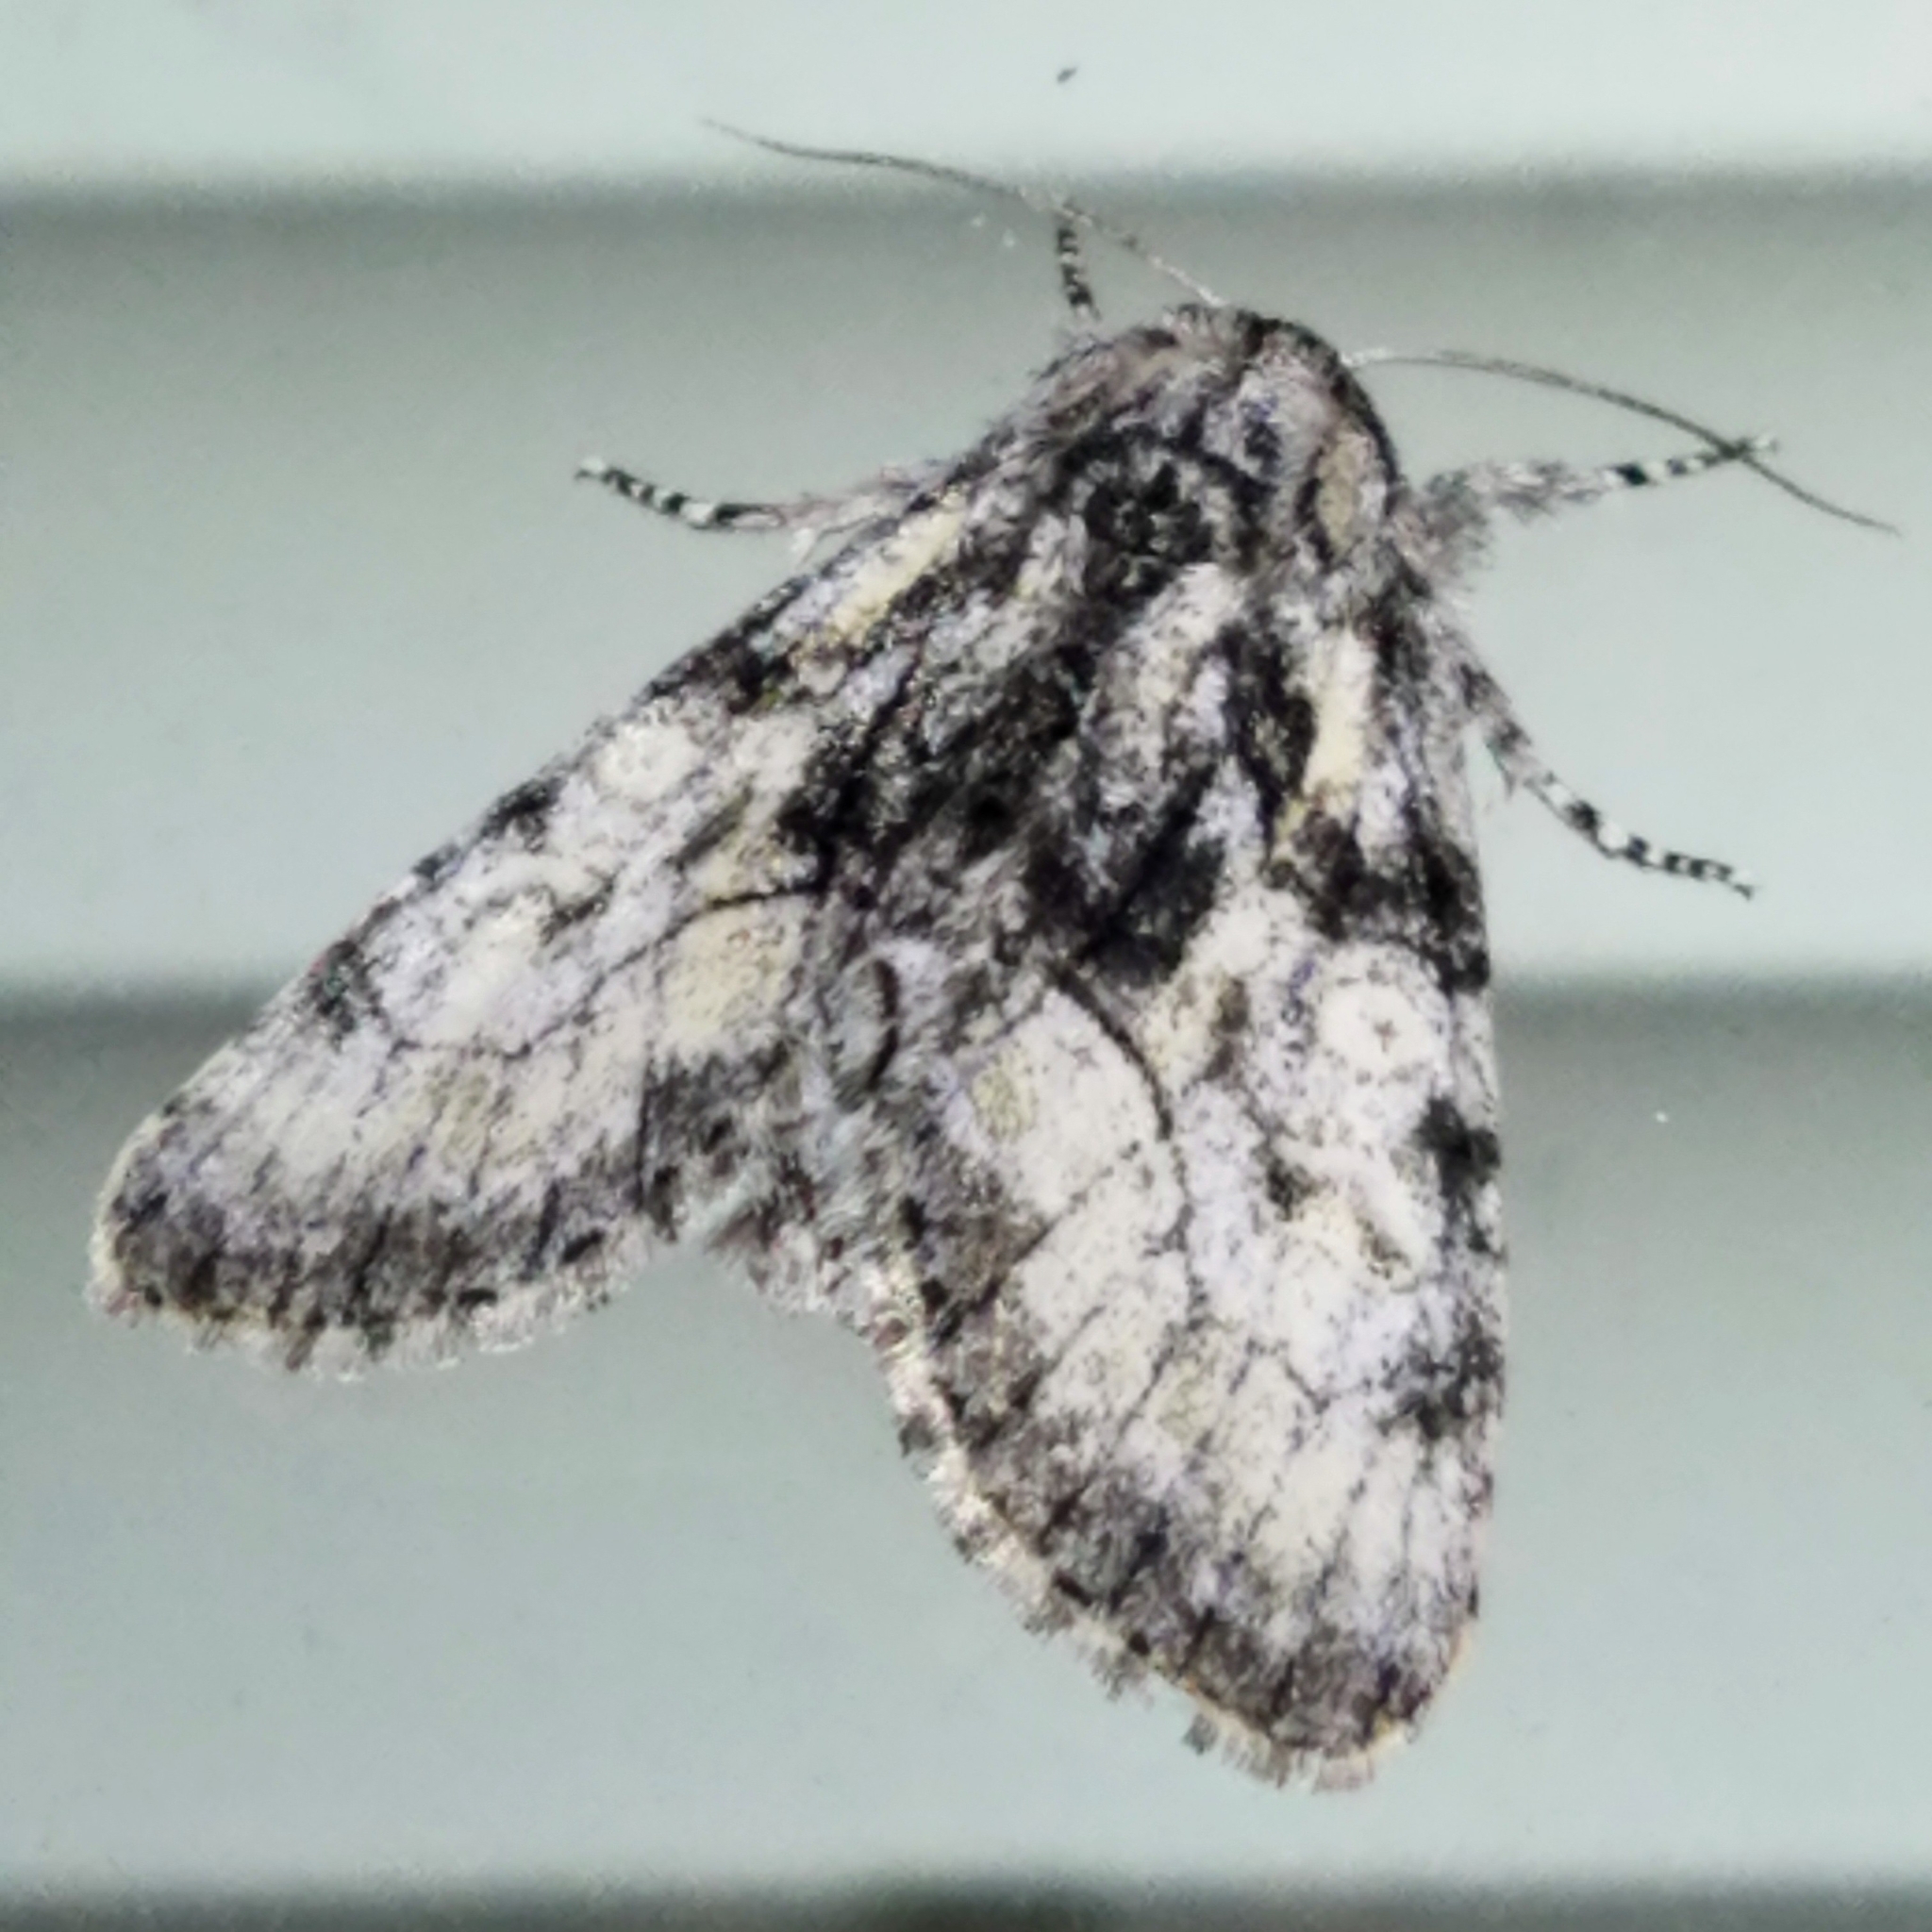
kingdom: Animalia
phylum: Arthropoda
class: Insecta
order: Lepidoptera
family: Noctuidae
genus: Raphia
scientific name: Raphia frater
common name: Brother
